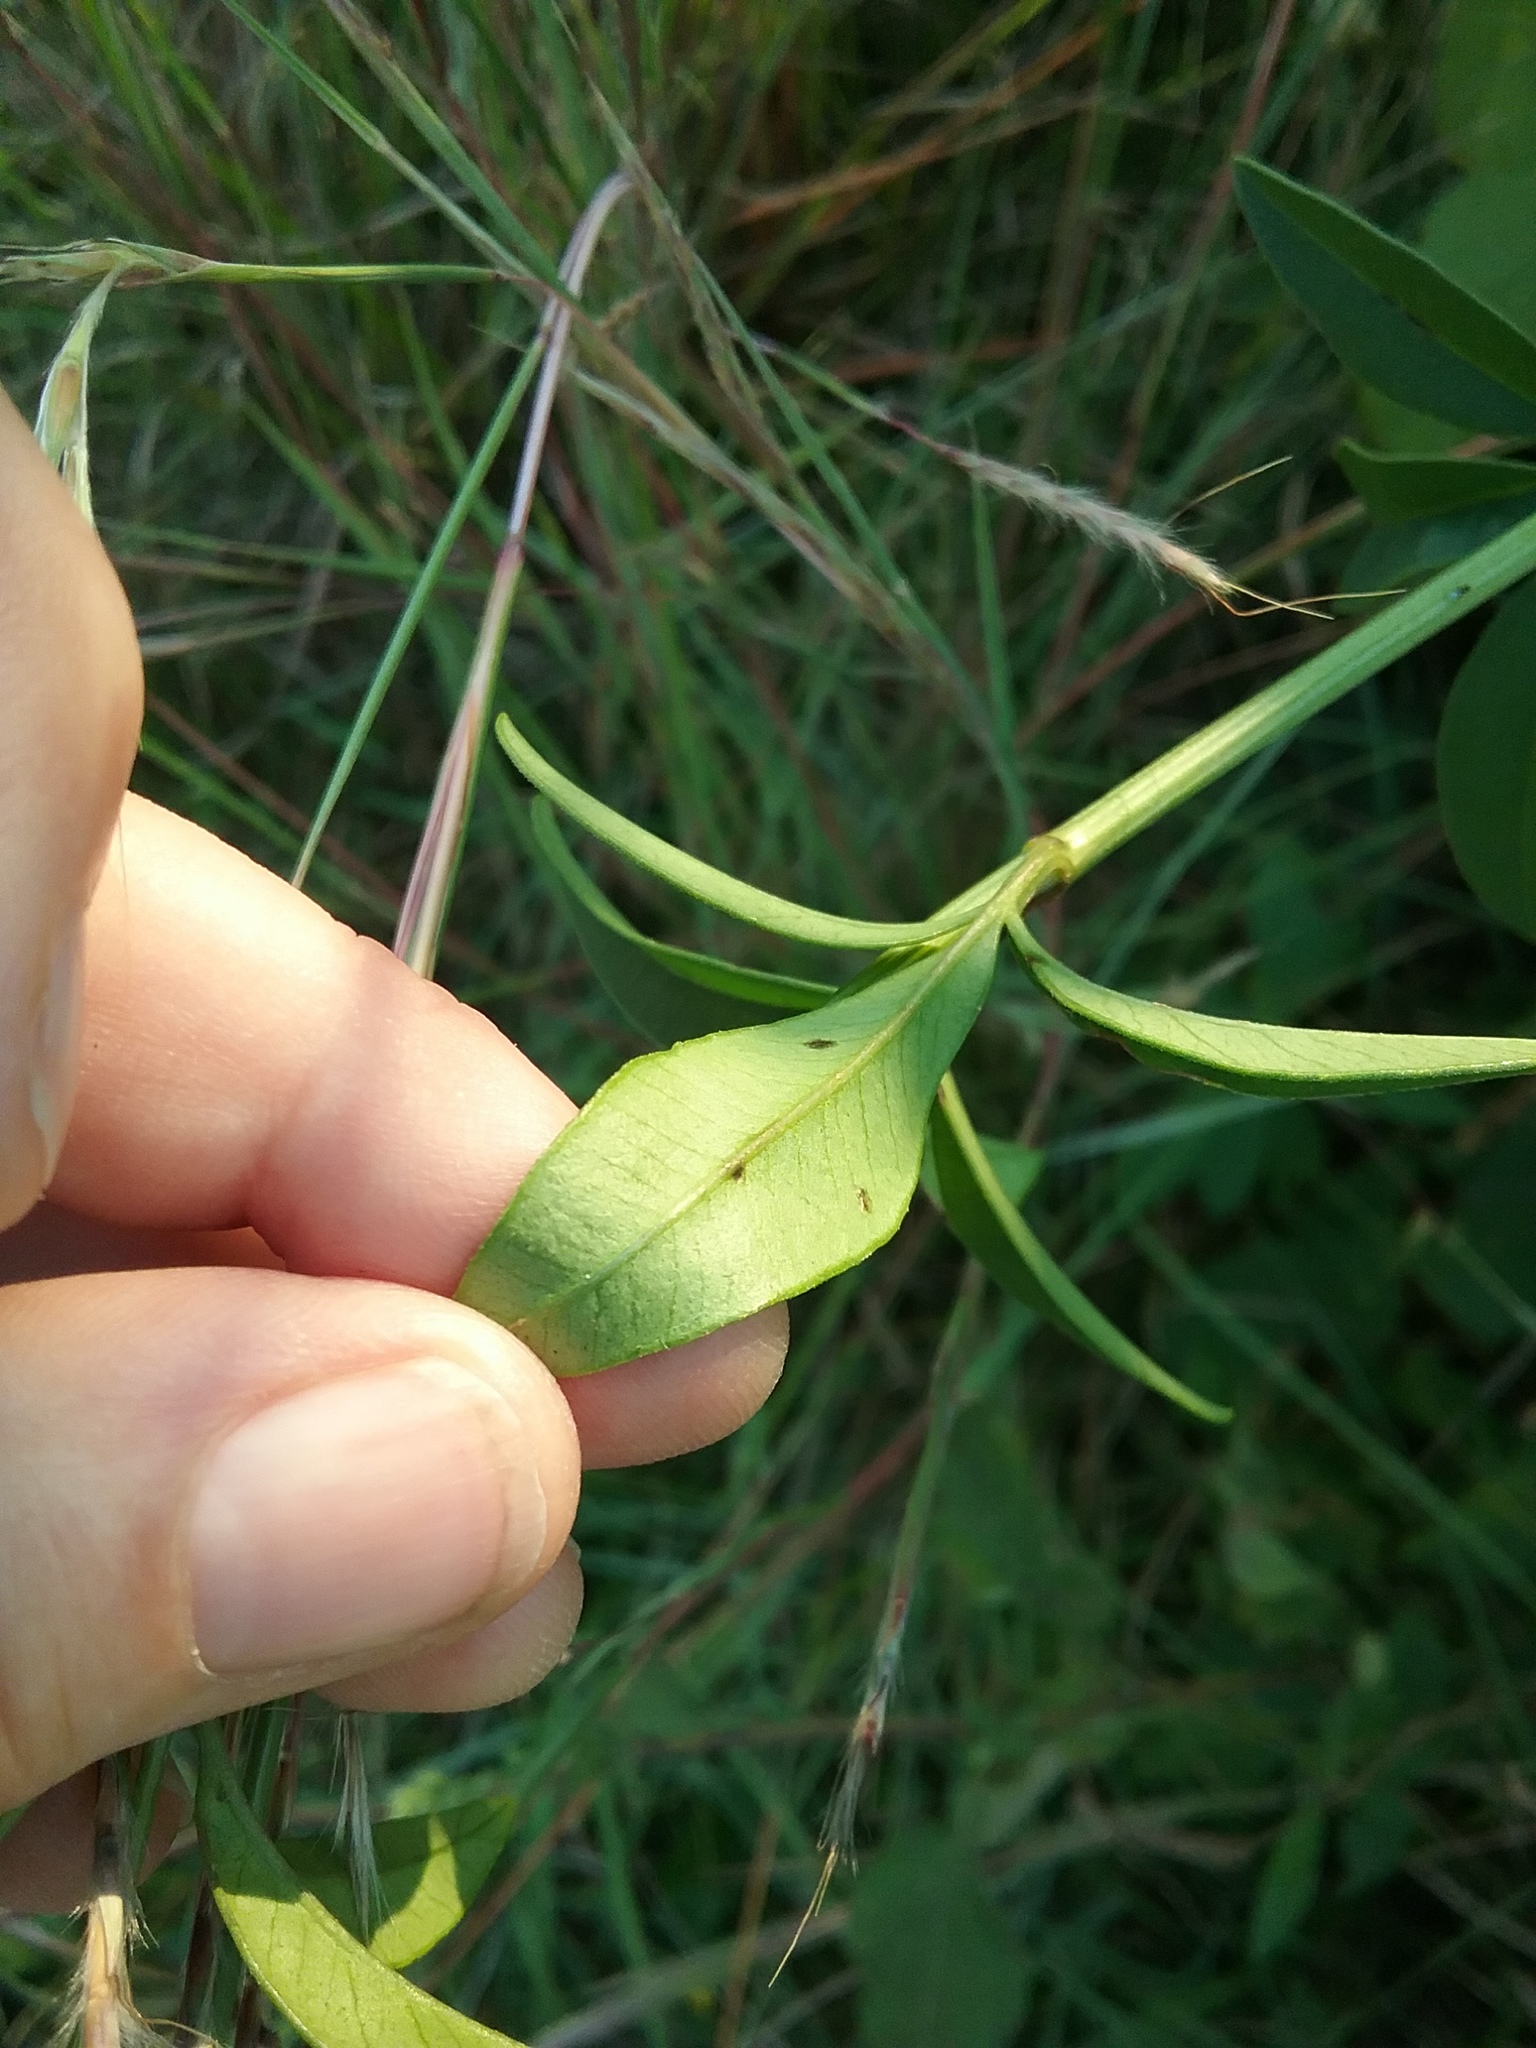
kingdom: Plantae
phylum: Tracheophyta
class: Magnoliopsida
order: Asterales
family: Asteraceae
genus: Coreopsis
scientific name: Coreopsis tripteris
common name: Tall coreopsis
